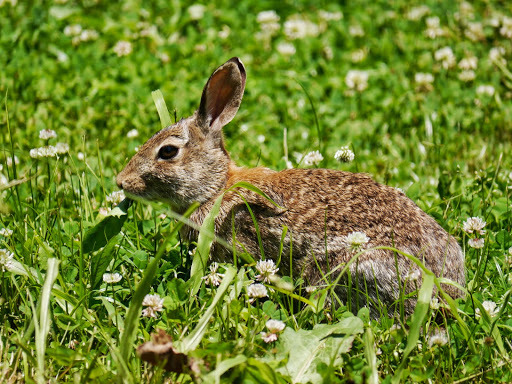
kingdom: Animalia
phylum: Chordata
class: Mammalia
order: Lagomorpha
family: Leporidae
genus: Sylvilagus
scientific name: Sylvilagus floridanus
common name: Eastern cottontail
